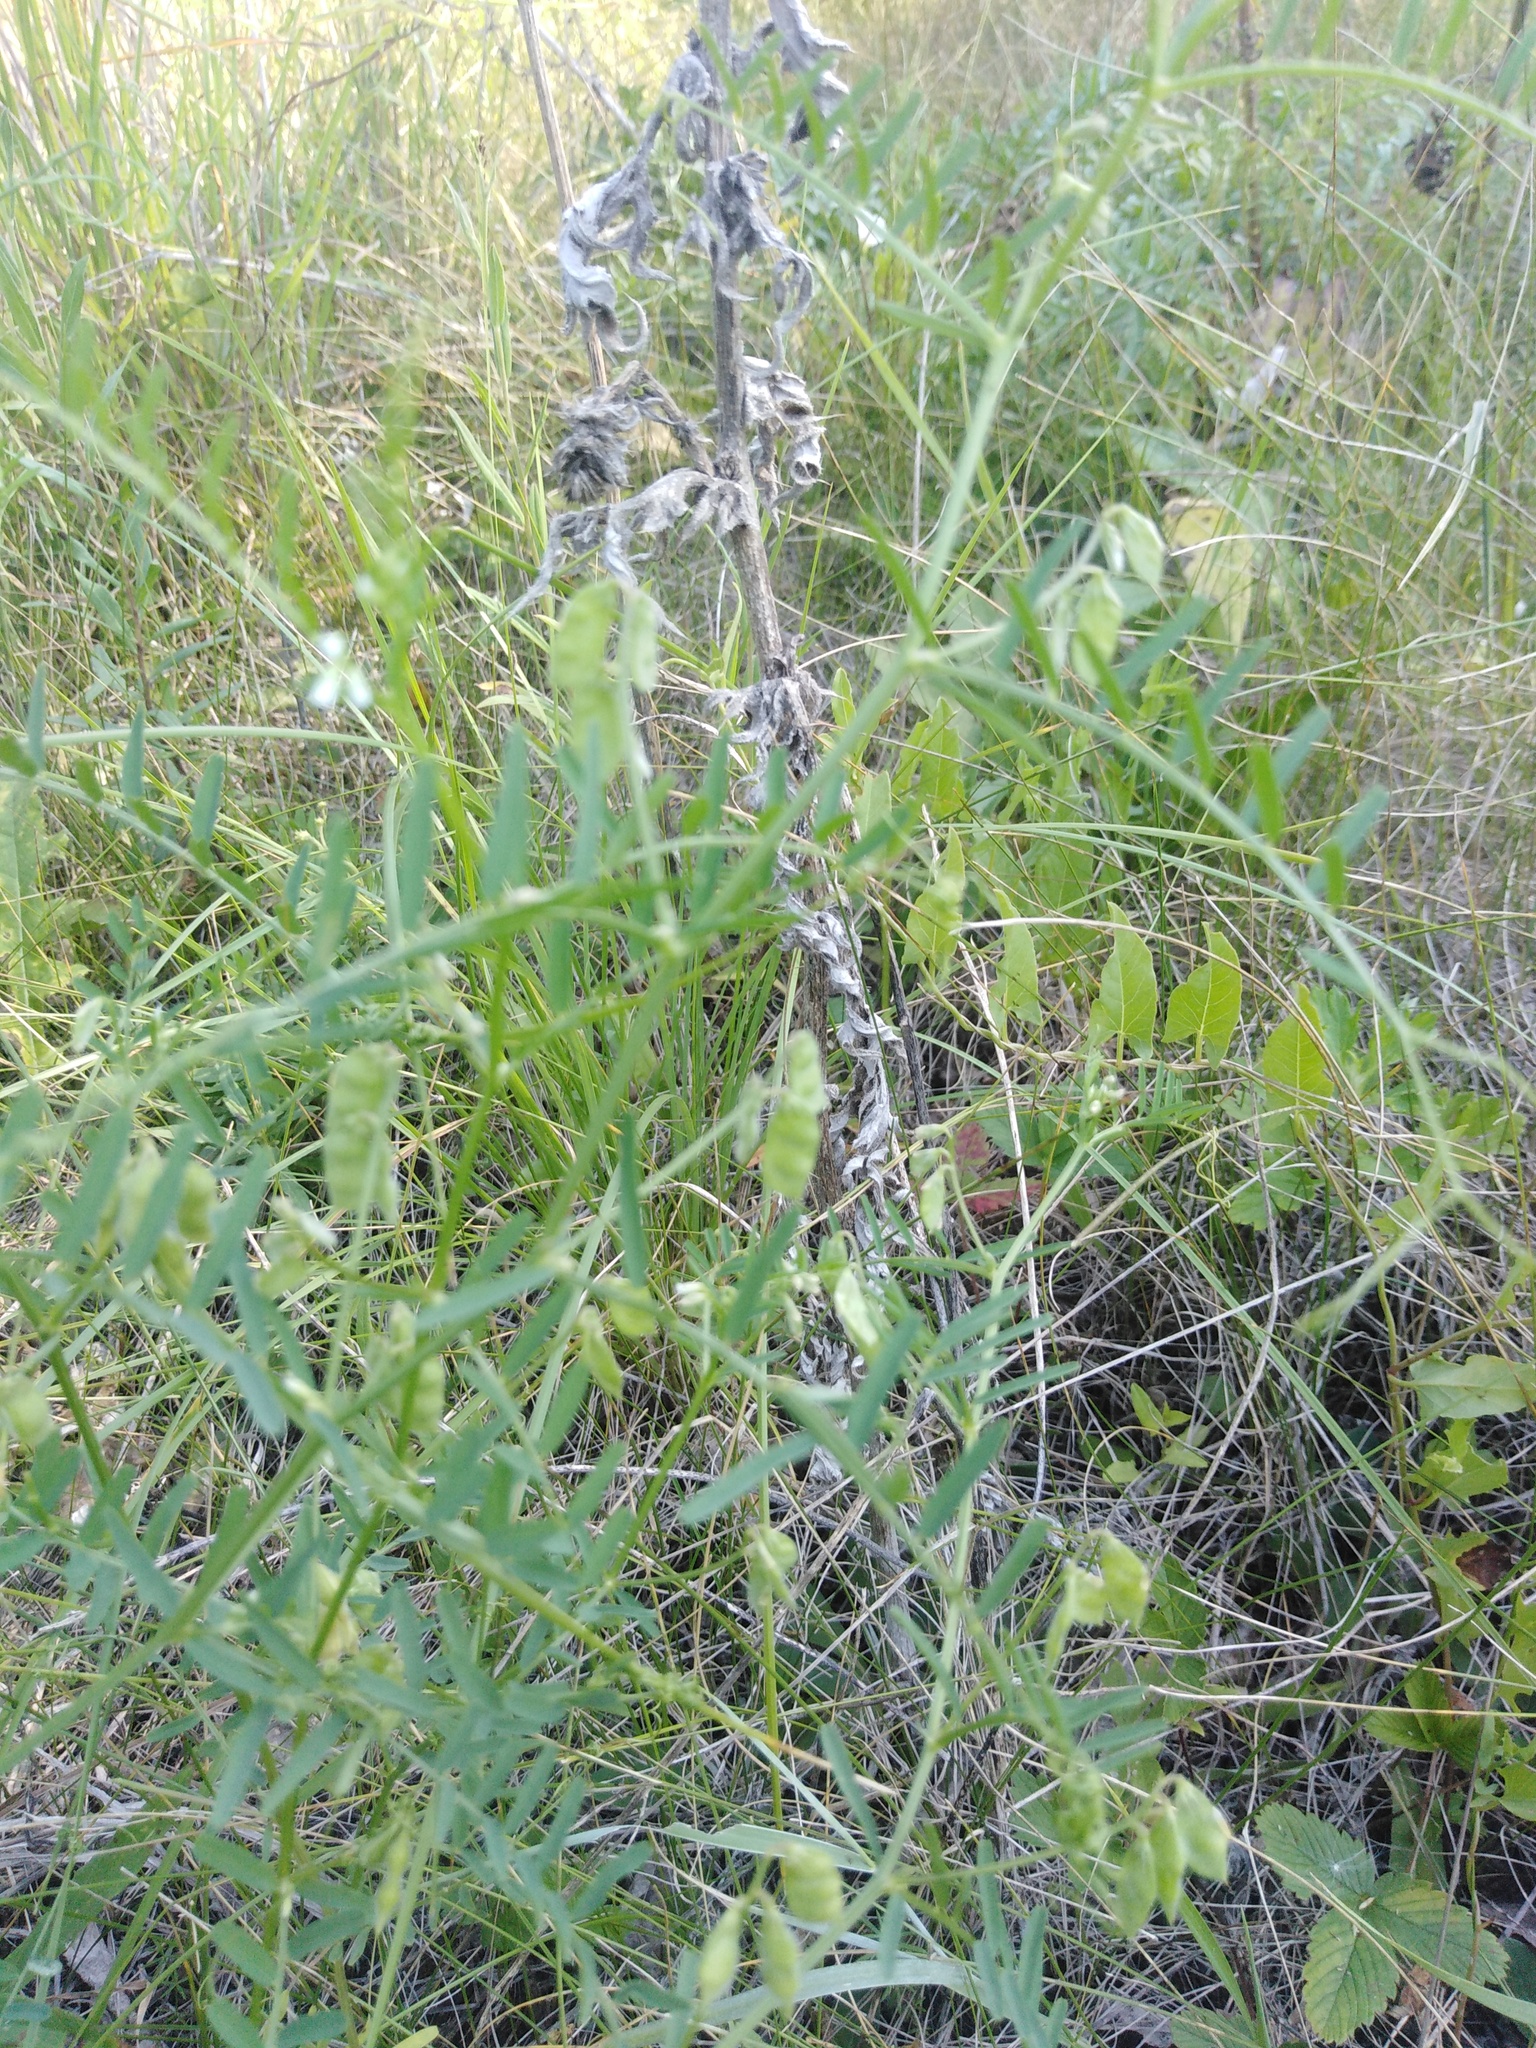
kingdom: Plantae
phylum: Tracheophyta
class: Magnoliopsida
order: Fabales
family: Fabaceae
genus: Vicia
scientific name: Vicia hirsuta
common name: Tiny vetch
